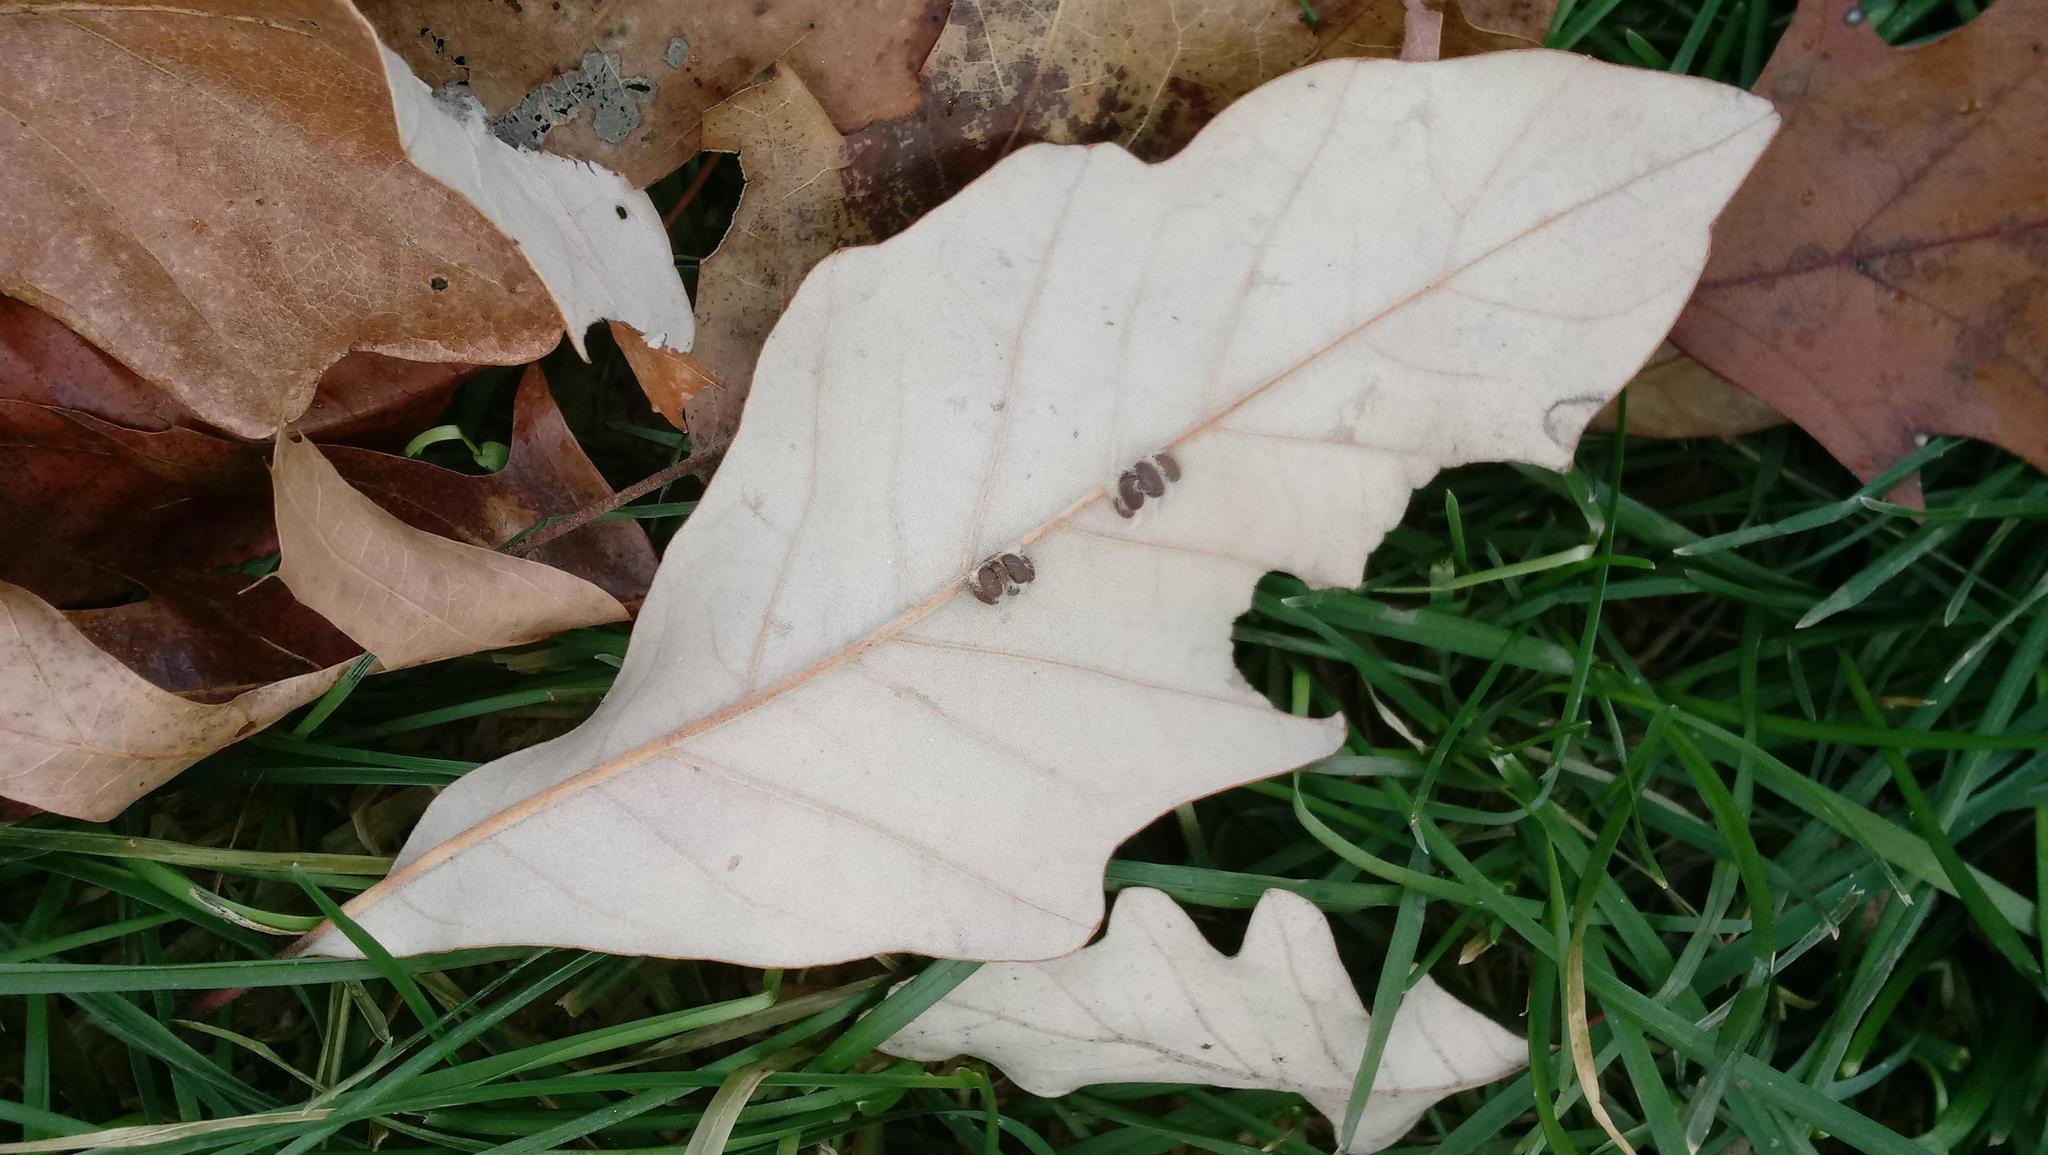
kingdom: Animalia
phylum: Arthropoda
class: Insecta
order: Hymenoptera
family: Cynipidae
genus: Andricus
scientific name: Andricus Druon ignotum
